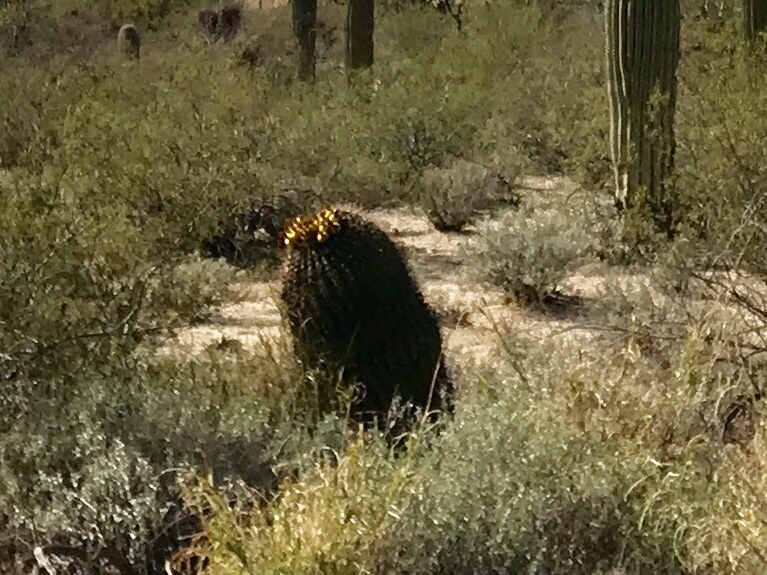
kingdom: Plantae
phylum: Tracheophyta
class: Magnoliopsida
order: Caryophyllales
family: Cactaceae
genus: Ferocactus
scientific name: Ferocactus wislizeni
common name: Candy barrel cactus
